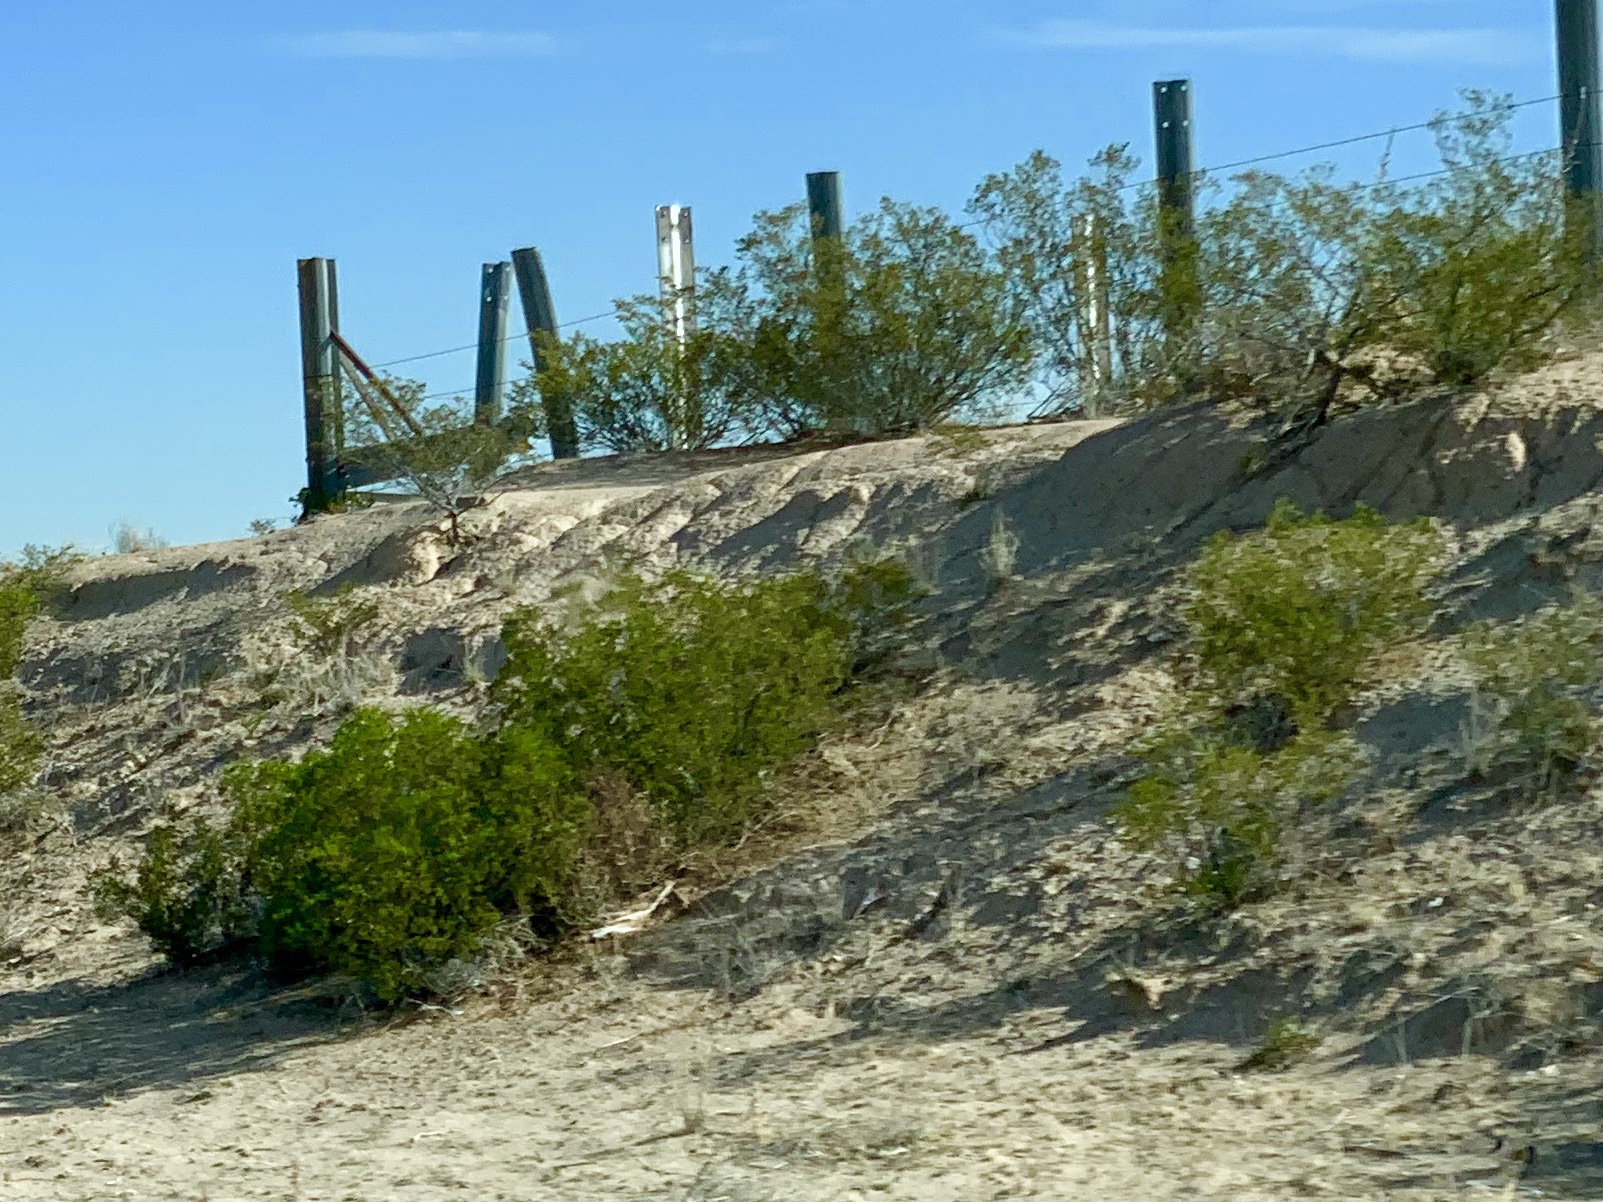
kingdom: Plantae
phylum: Tracheophyta
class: Magnoliopsida
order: Zygophyllales
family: Zygophyllaceae
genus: Larrea
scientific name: Larrea tridentata
